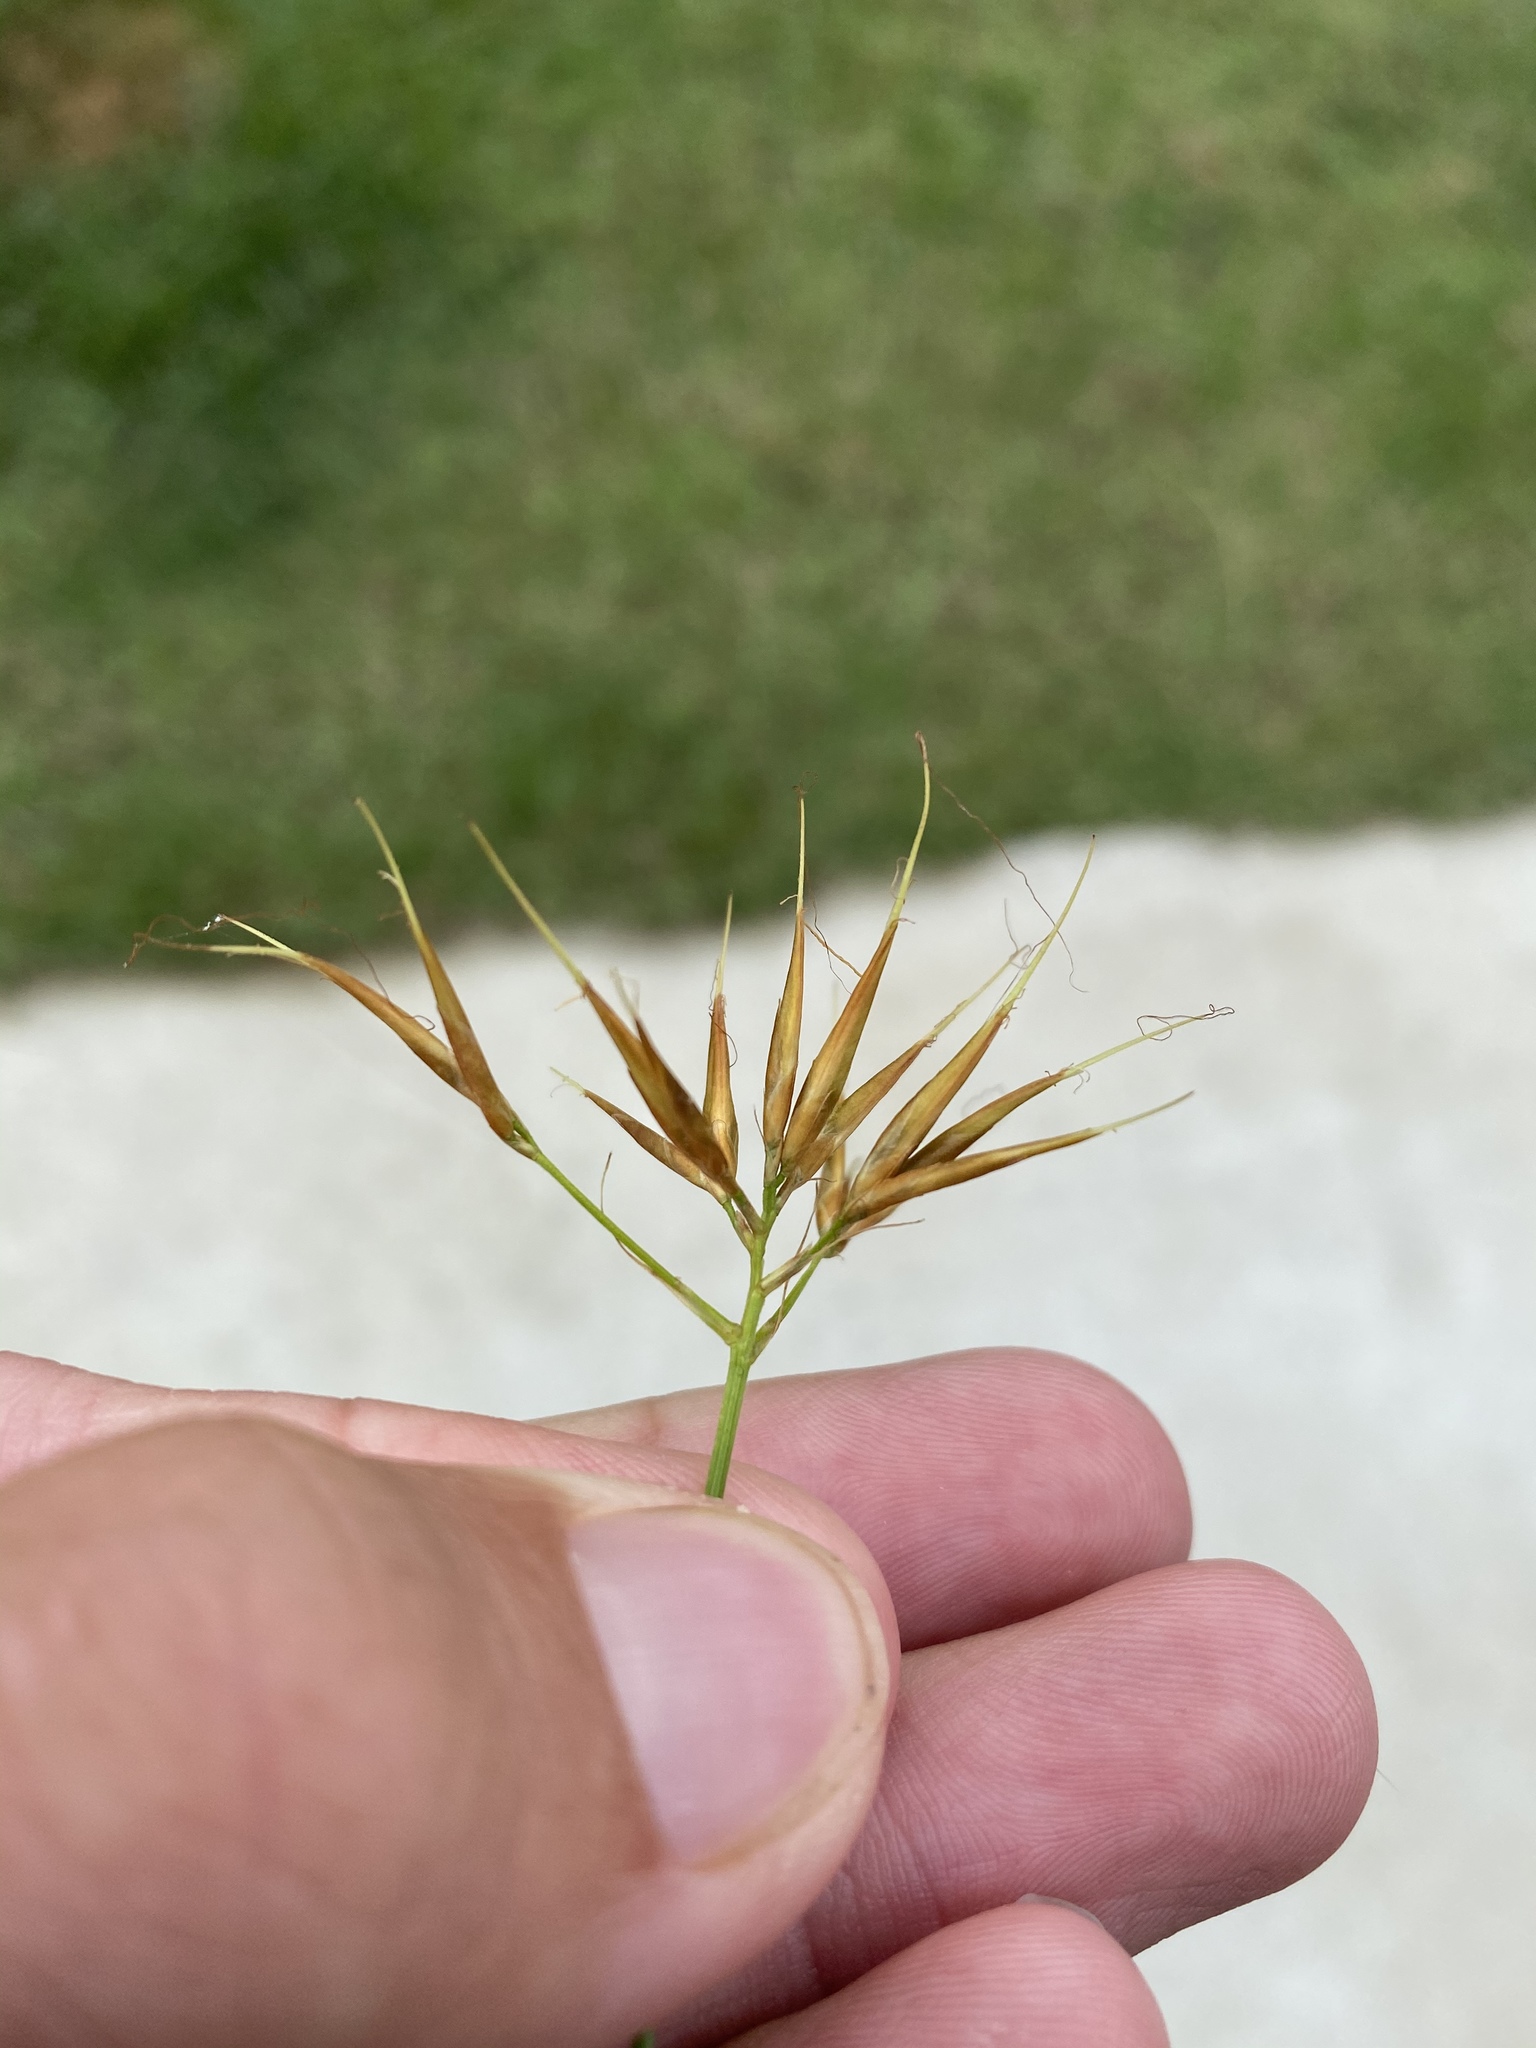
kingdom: Plantae
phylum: Tracheophyta
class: Liliopsida
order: Poales
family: Cyperaceae
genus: Rhynchospora
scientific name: Rhynchospora corniculata
